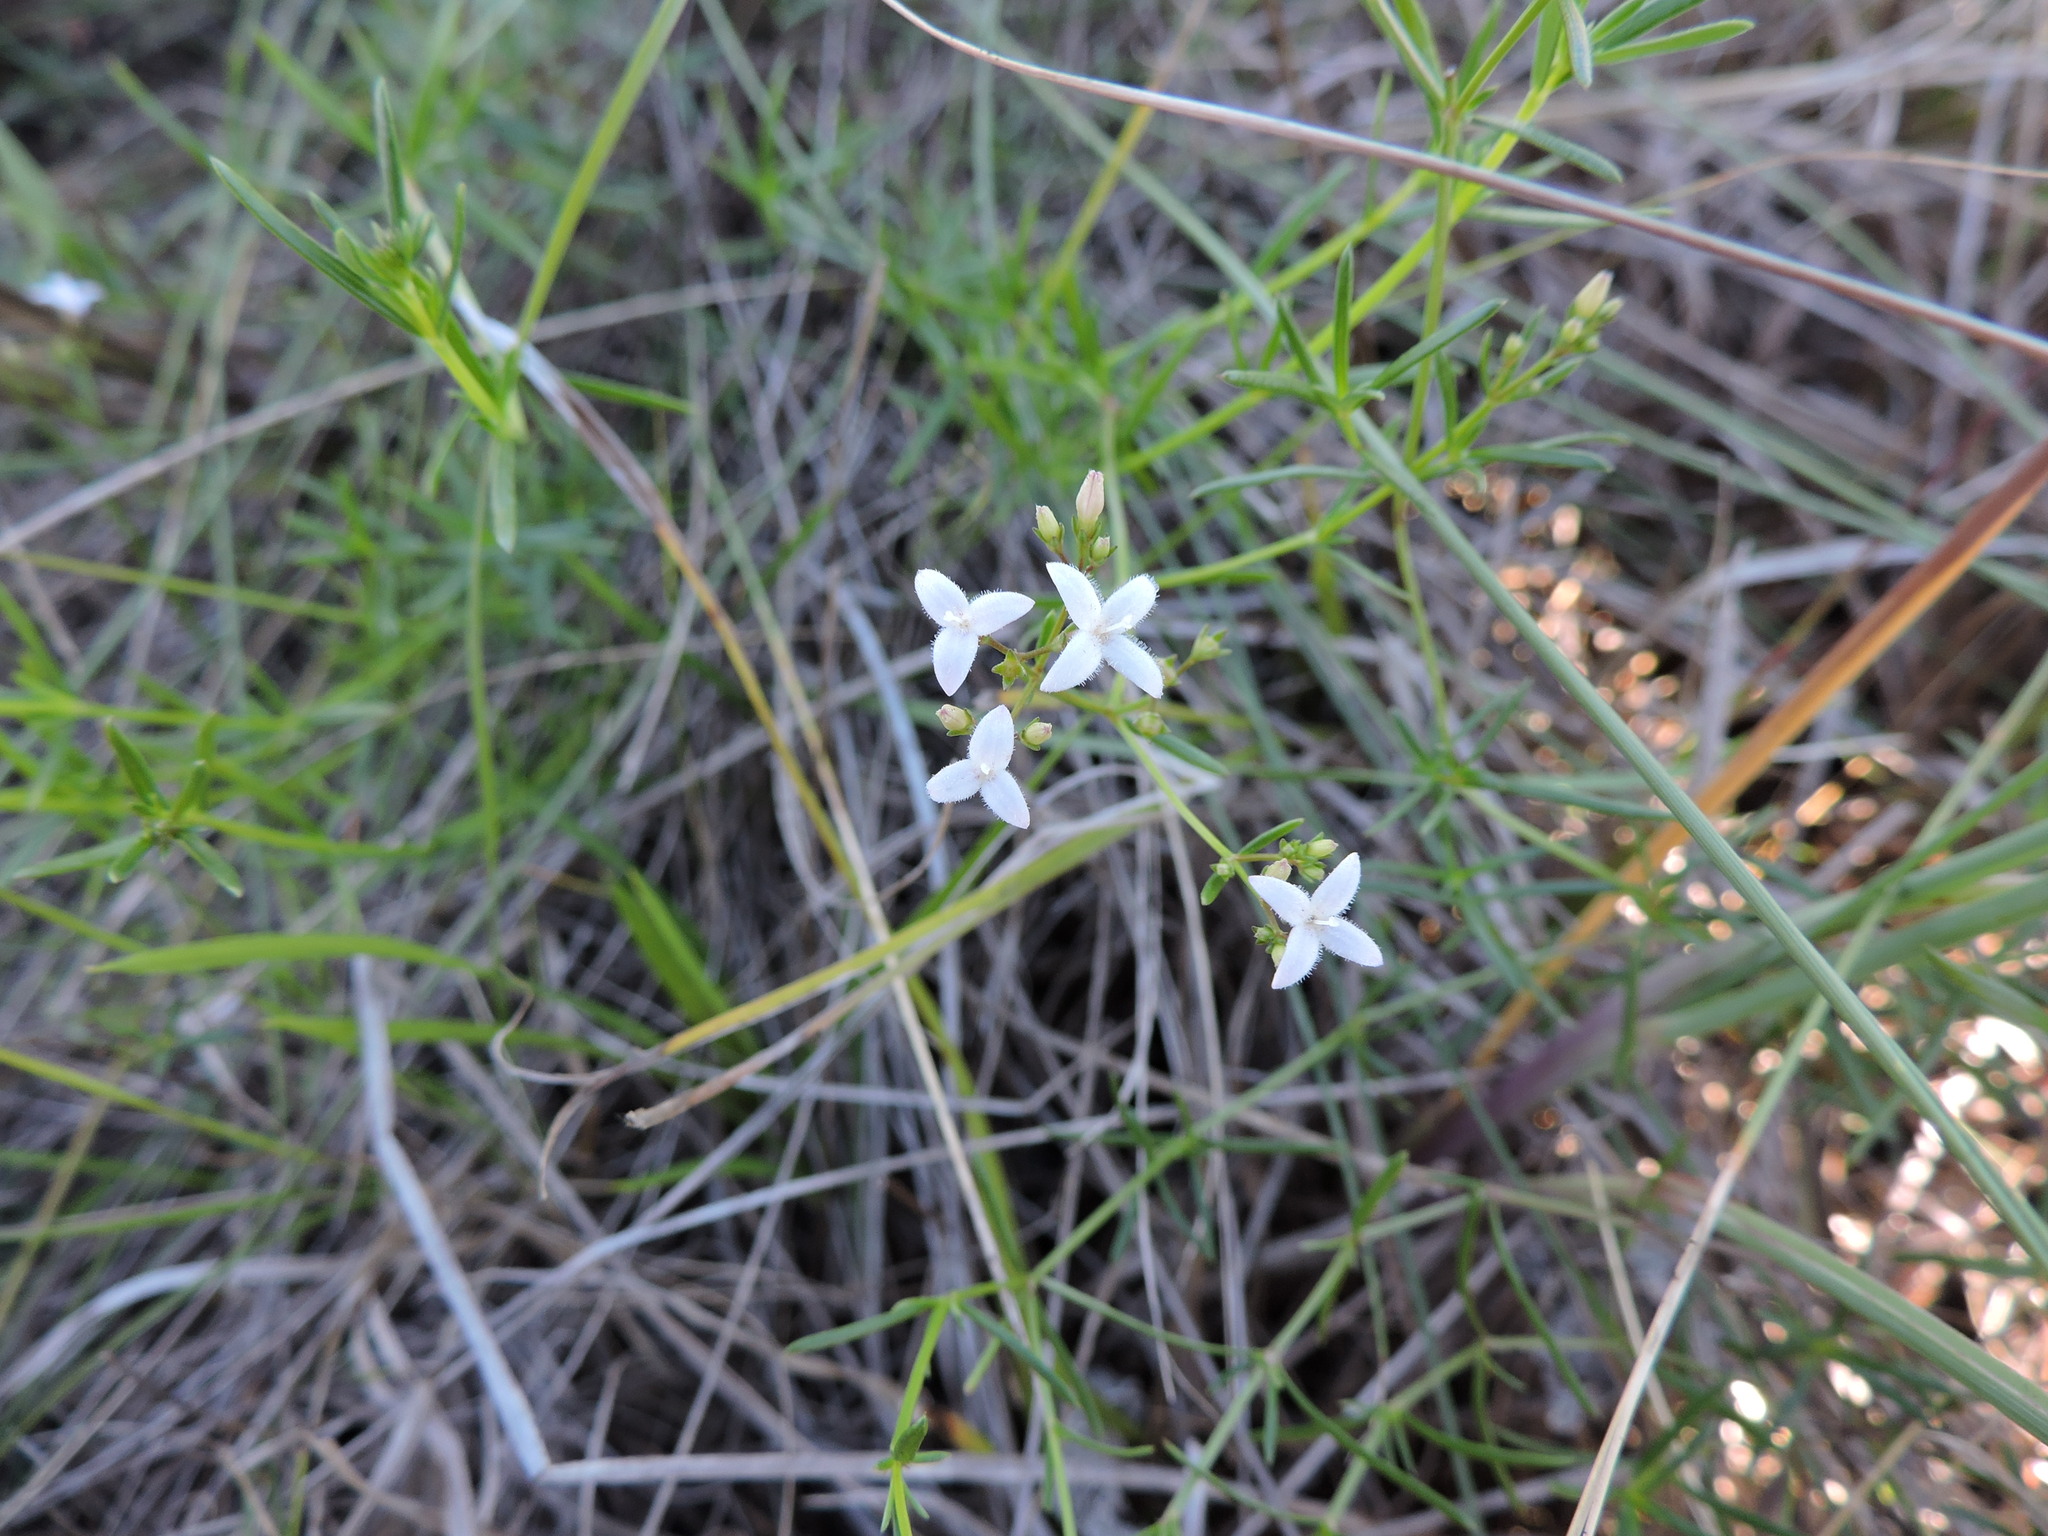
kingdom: Plantae
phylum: Tracheophyta
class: Magnoliopsida
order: Gentianales
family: Rubiaceae
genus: Stenaria
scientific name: Stenaria nigricans
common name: Diamondflowers
